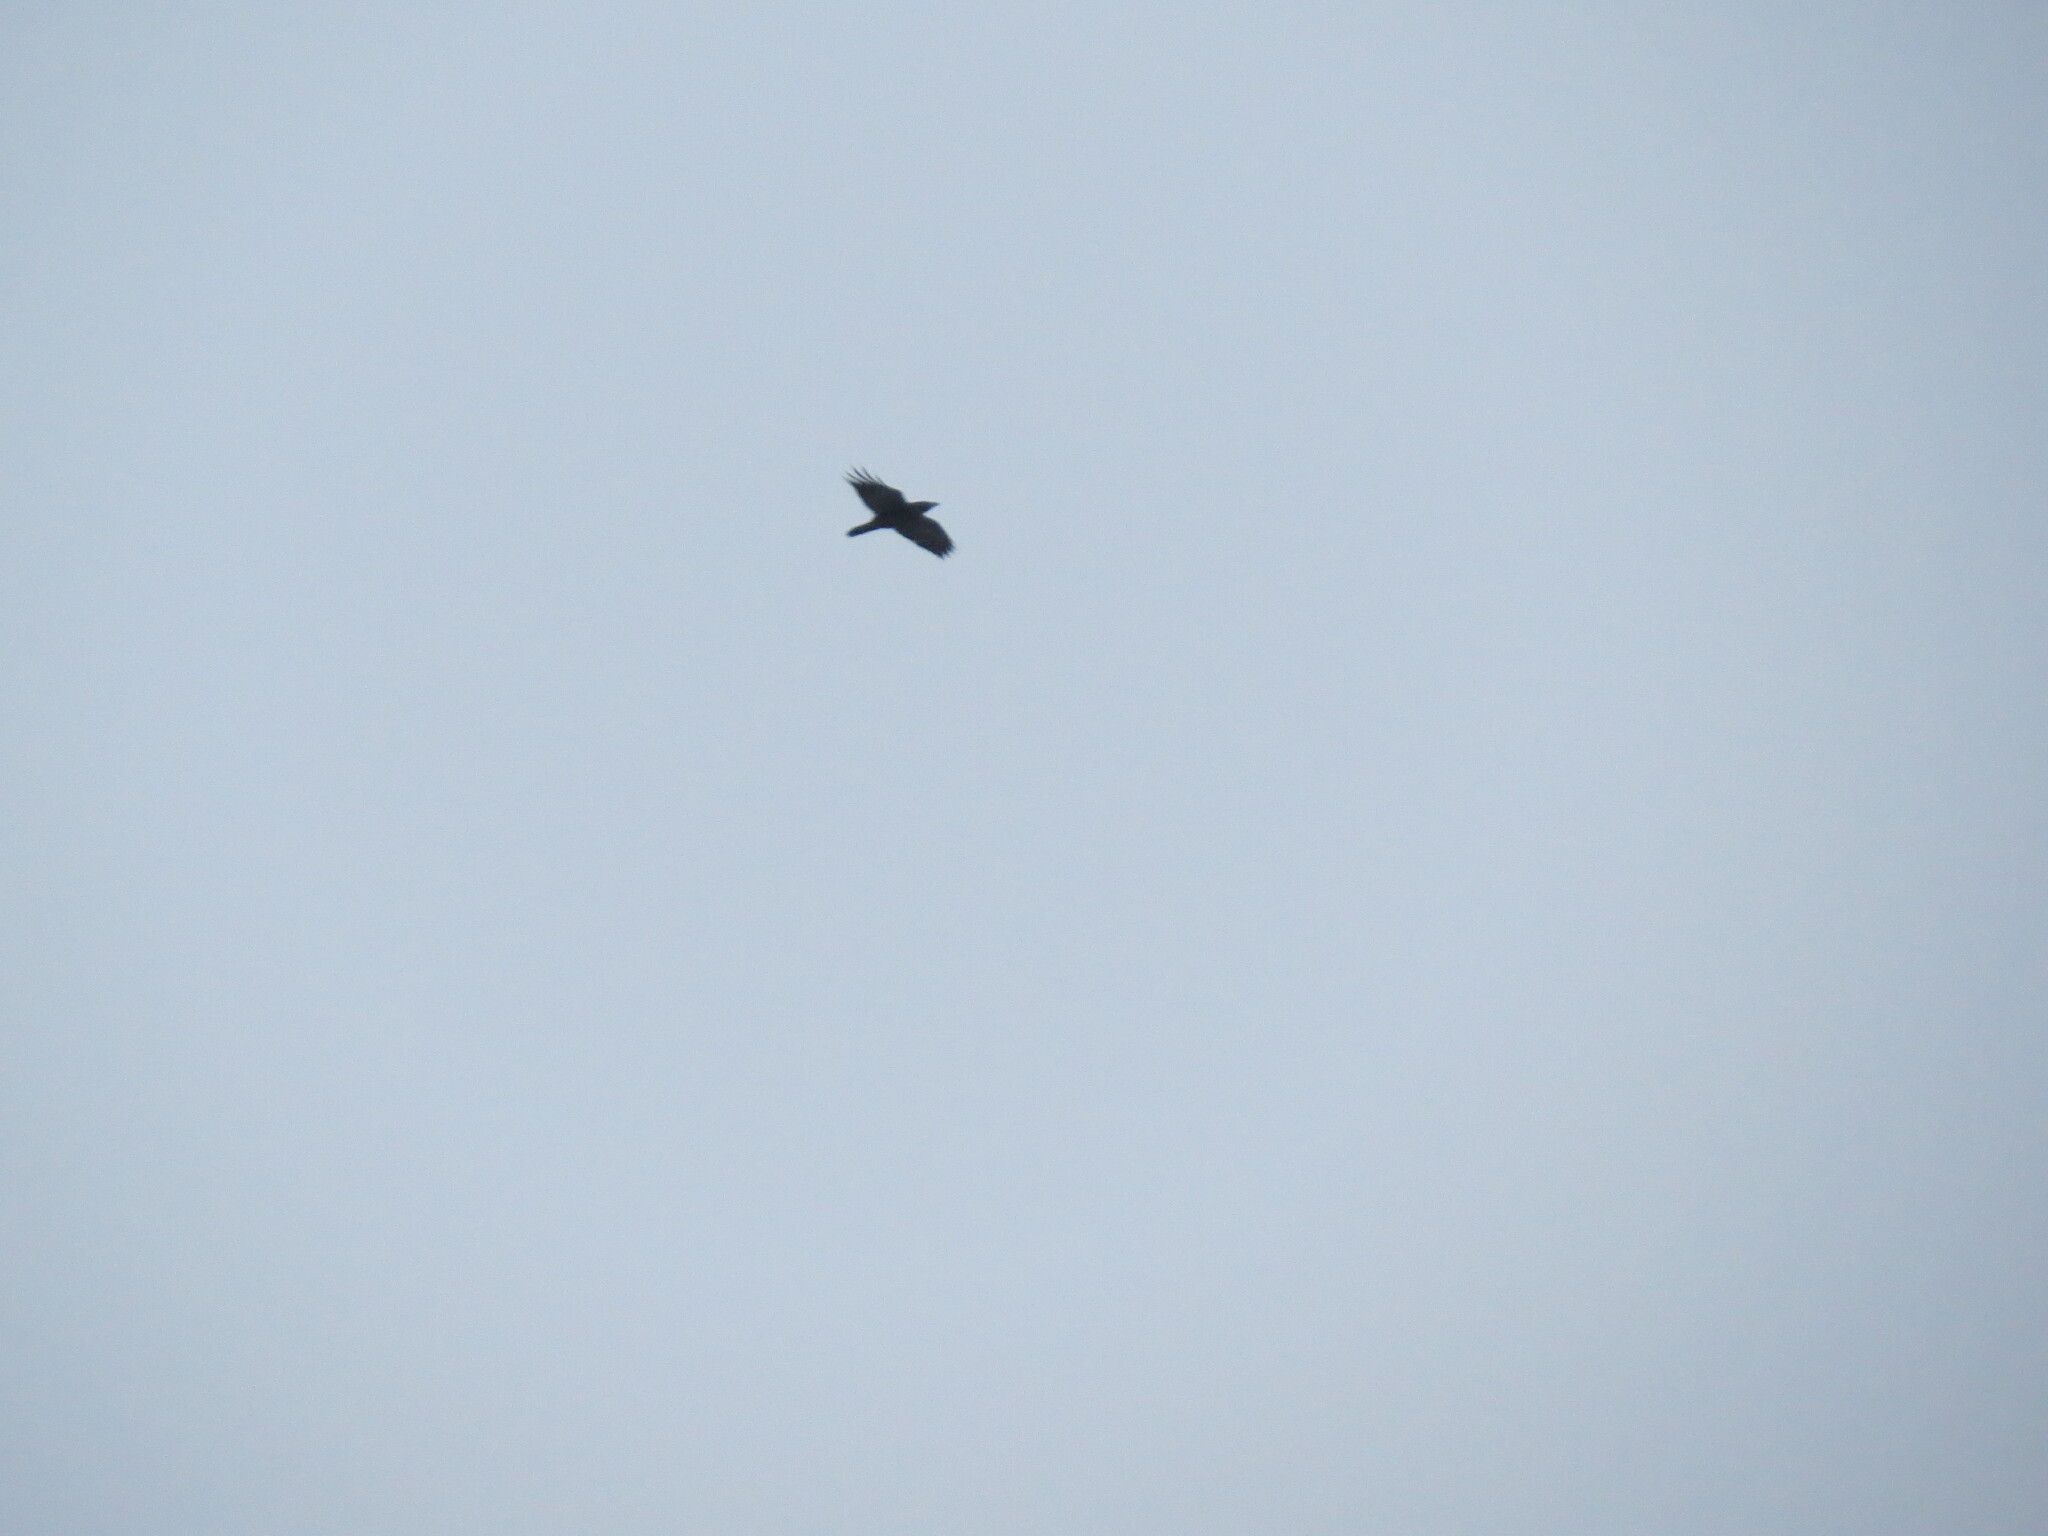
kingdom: Animalia
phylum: Chordata
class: Aves
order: Passeriformes
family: Corvidae
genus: Corvus
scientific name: Corvus corax
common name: Common raven
